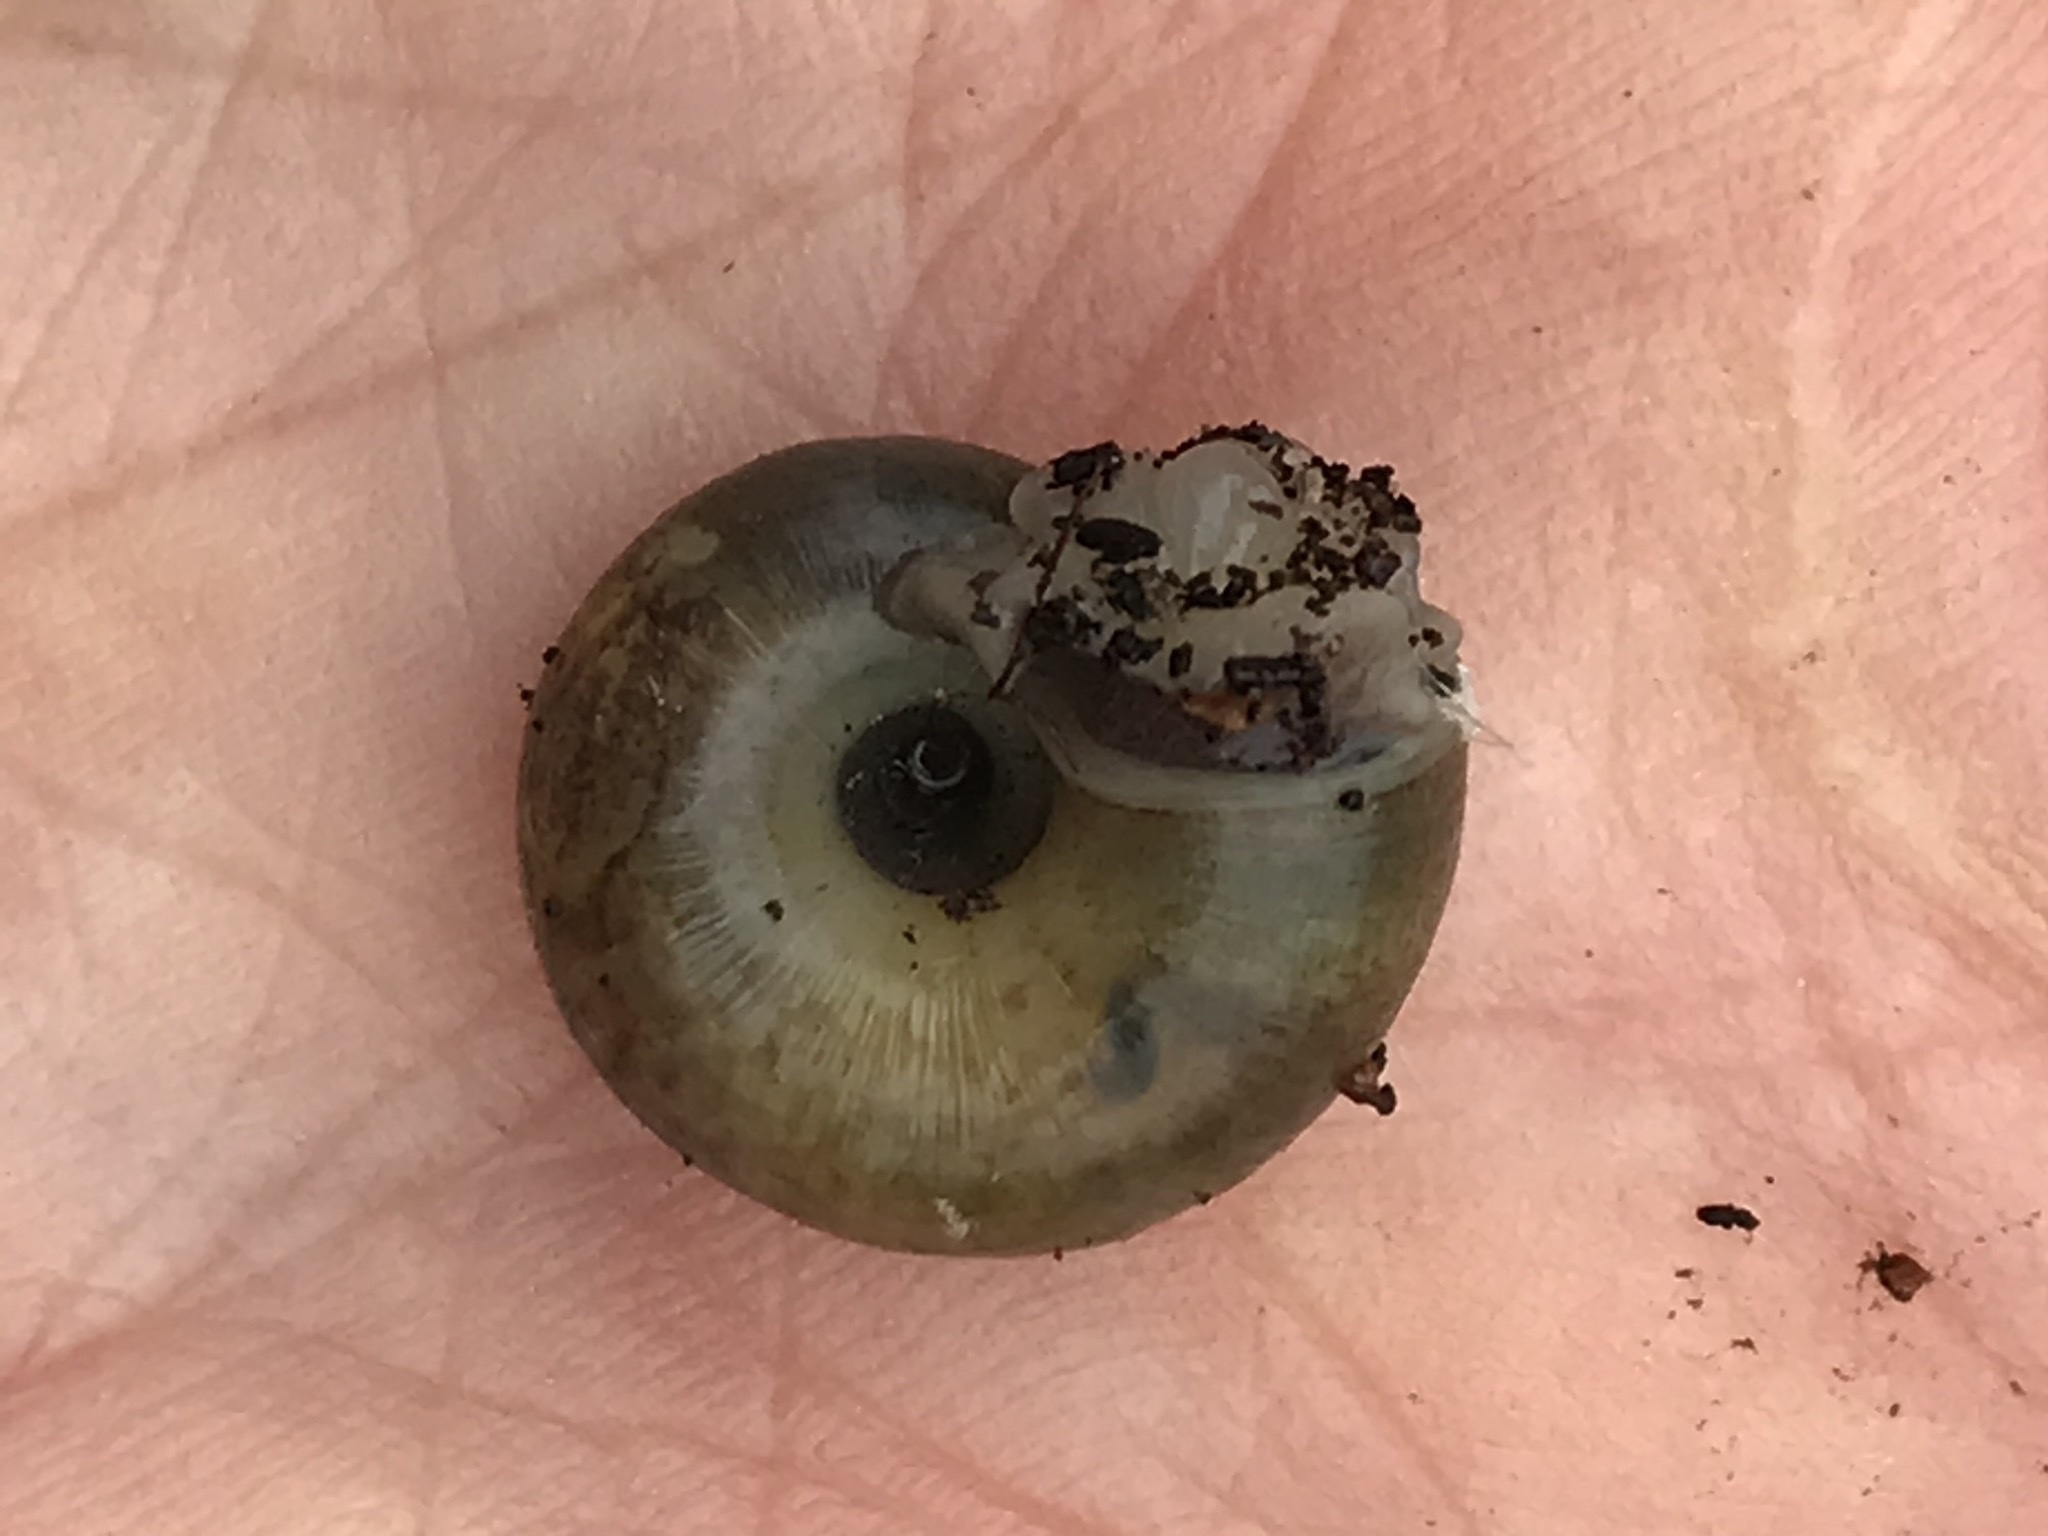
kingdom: Animalia
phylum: Mollusca
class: Gastropoda
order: Stylommatophora
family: Haplotrematidae
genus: Haplotrema
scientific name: Haplotrema minimum
